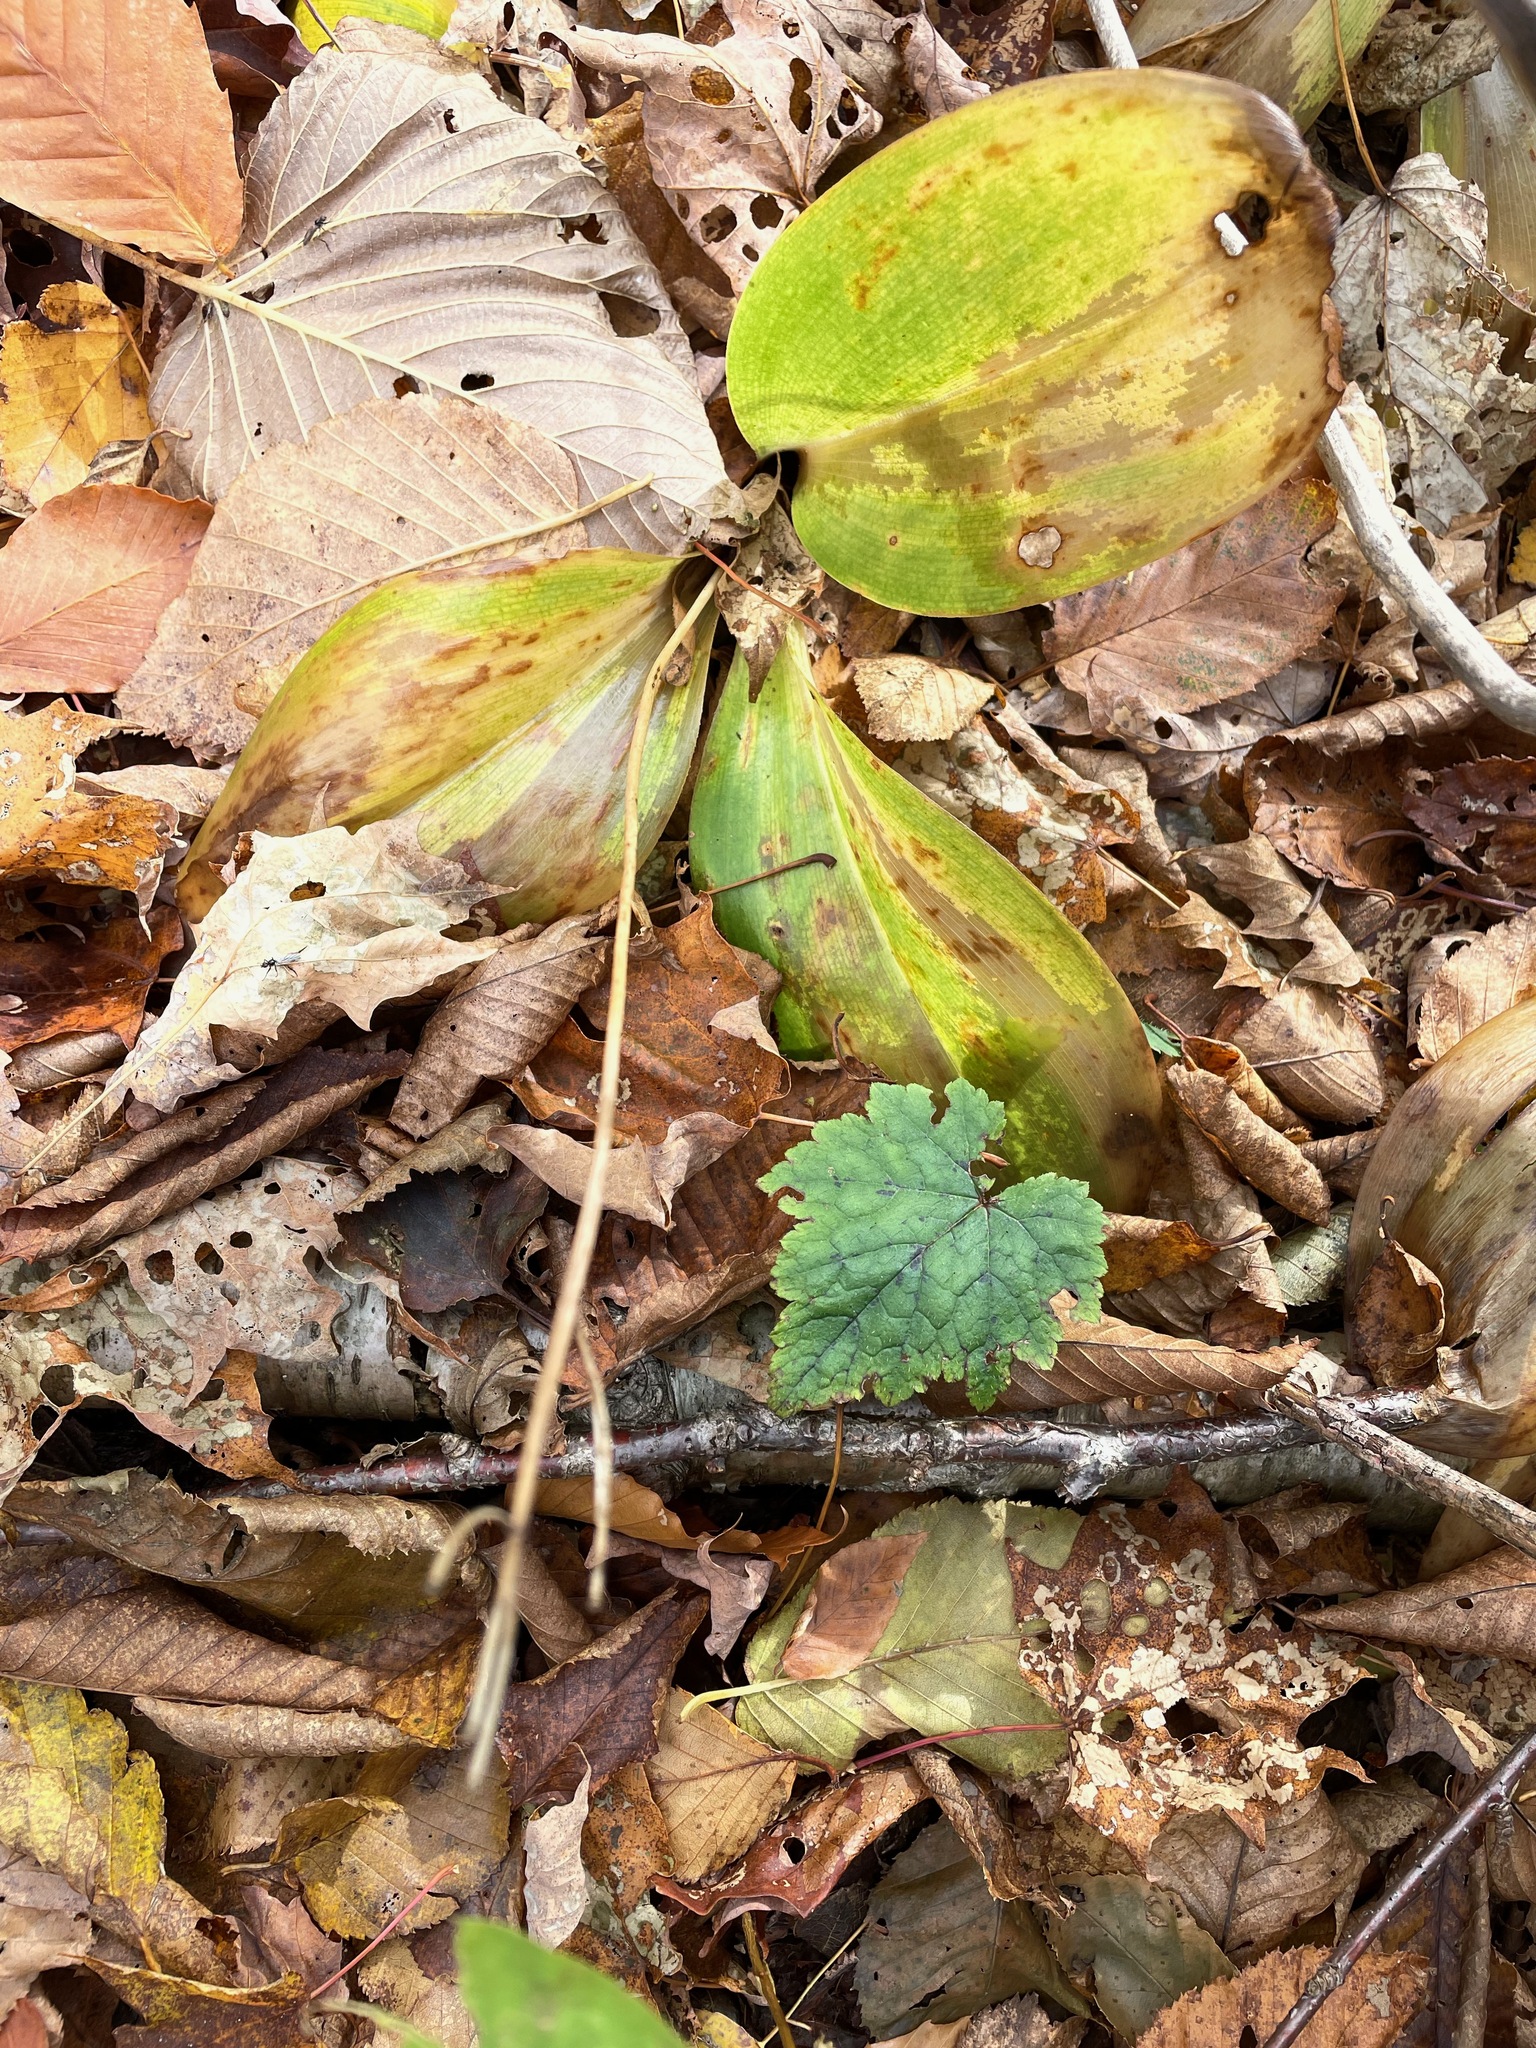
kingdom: Plantae
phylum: Tracheophyta
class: Liliopsida
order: Liliales
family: Liliaceae
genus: Clintonia
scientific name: Clintonia borealis
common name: Yellow clintonia
